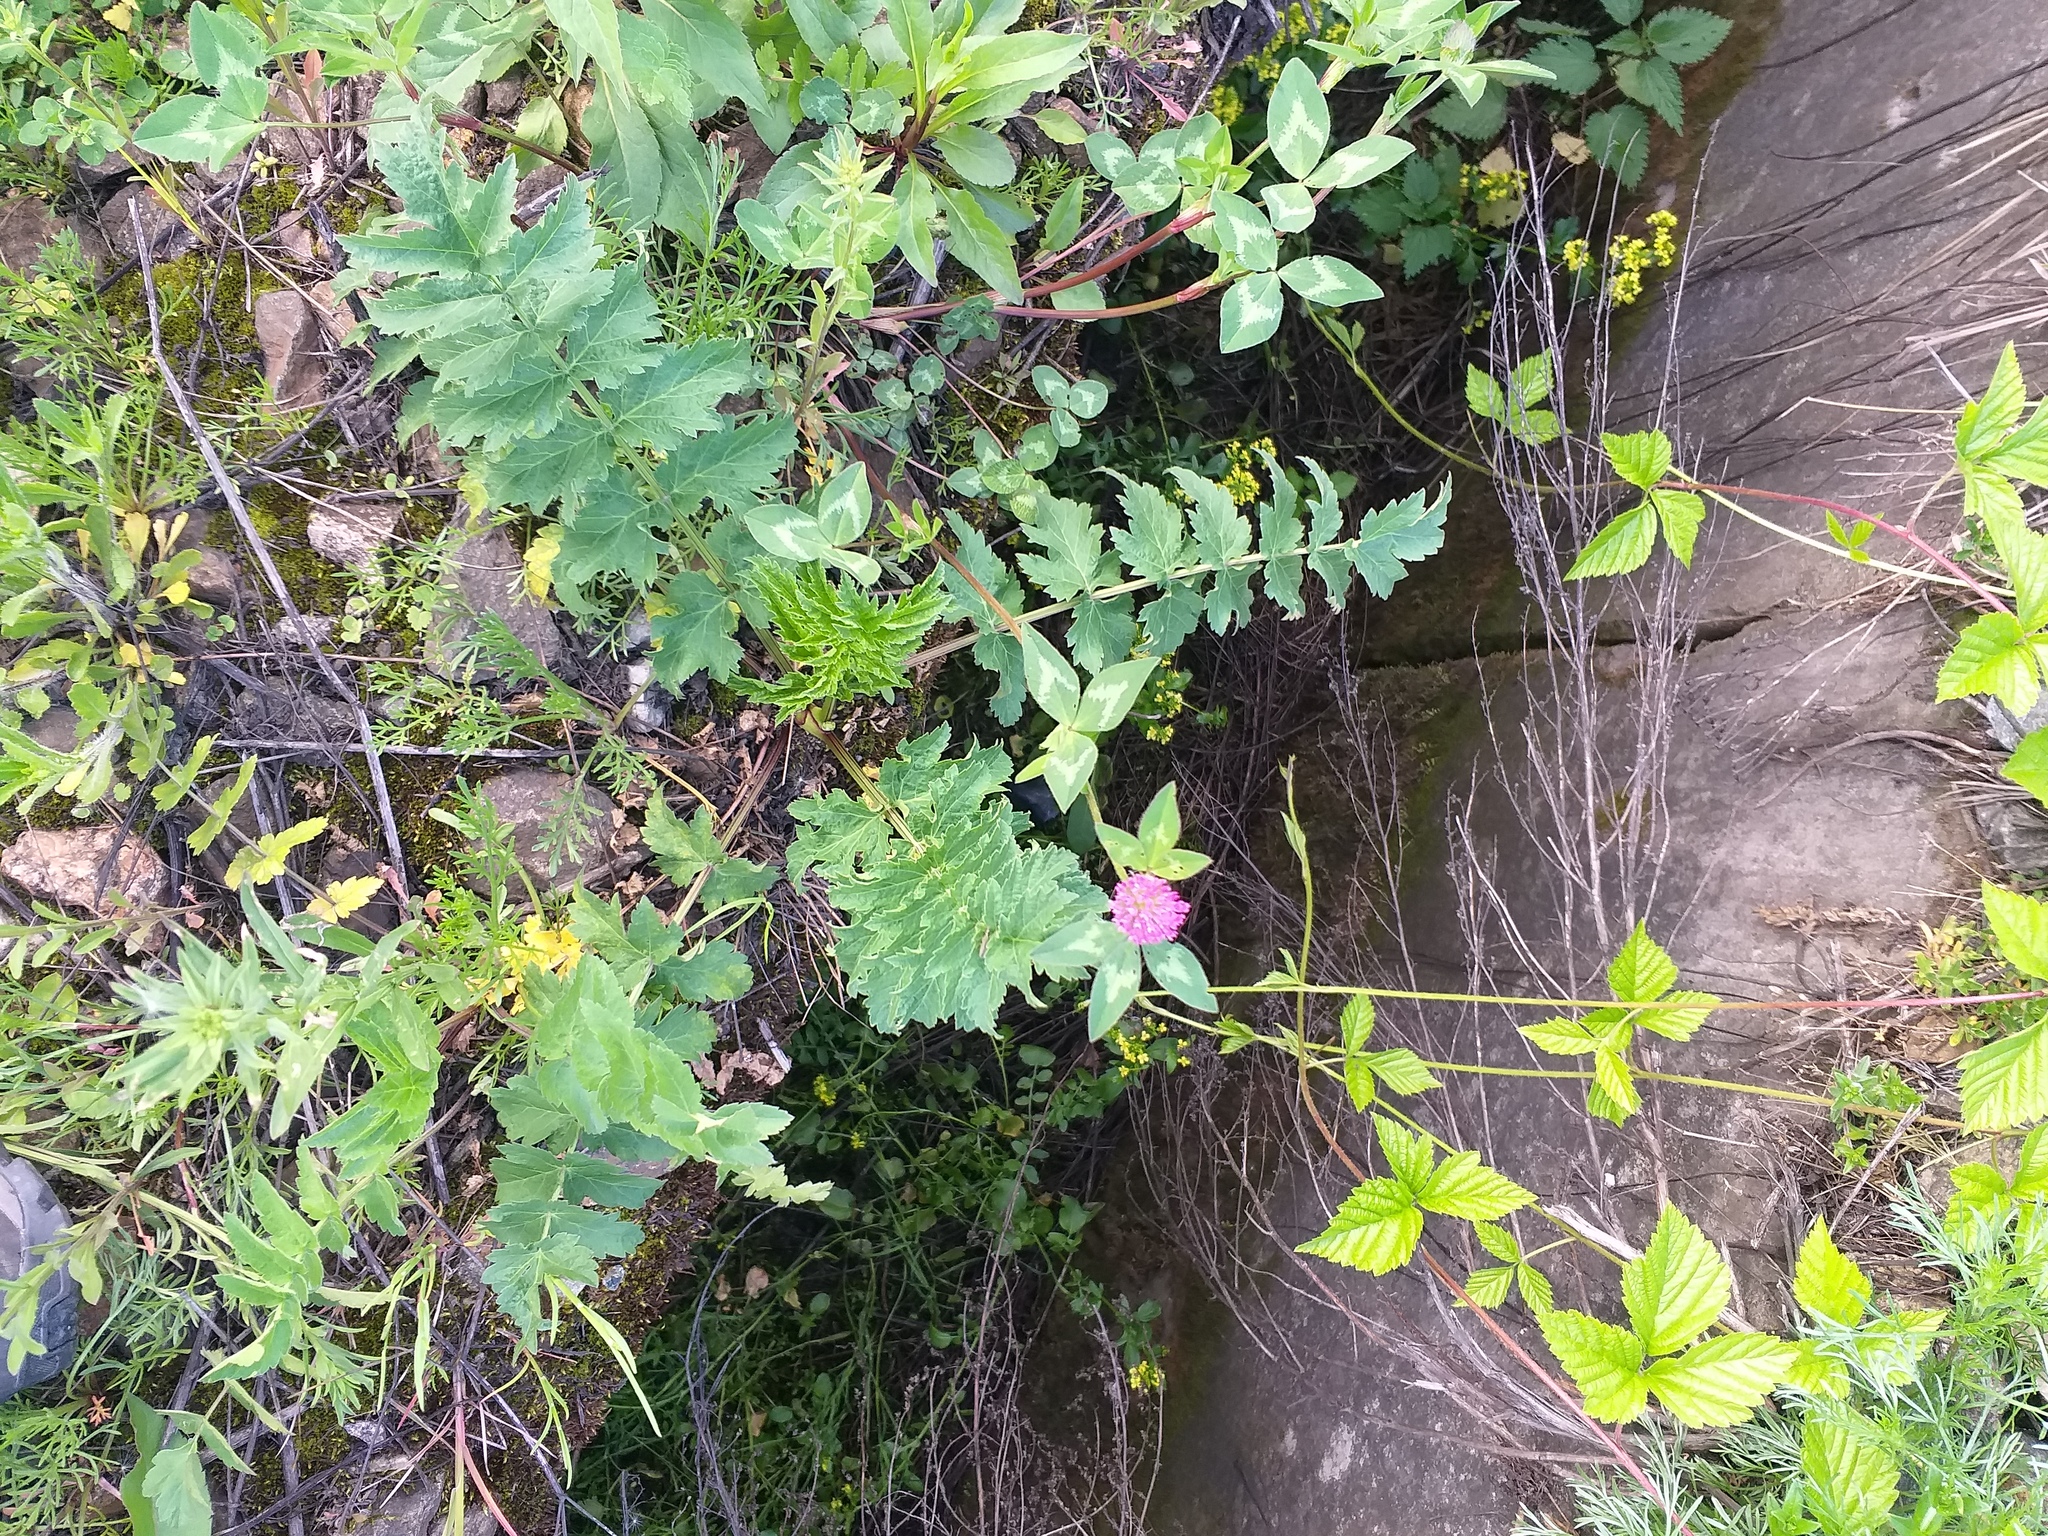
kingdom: Plantae
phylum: Tracheophyta
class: Magnoliopsida
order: Apiales
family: Apiaceae
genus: Pastinaca
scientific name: Pastinaca sativa
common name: Wild parsnip
